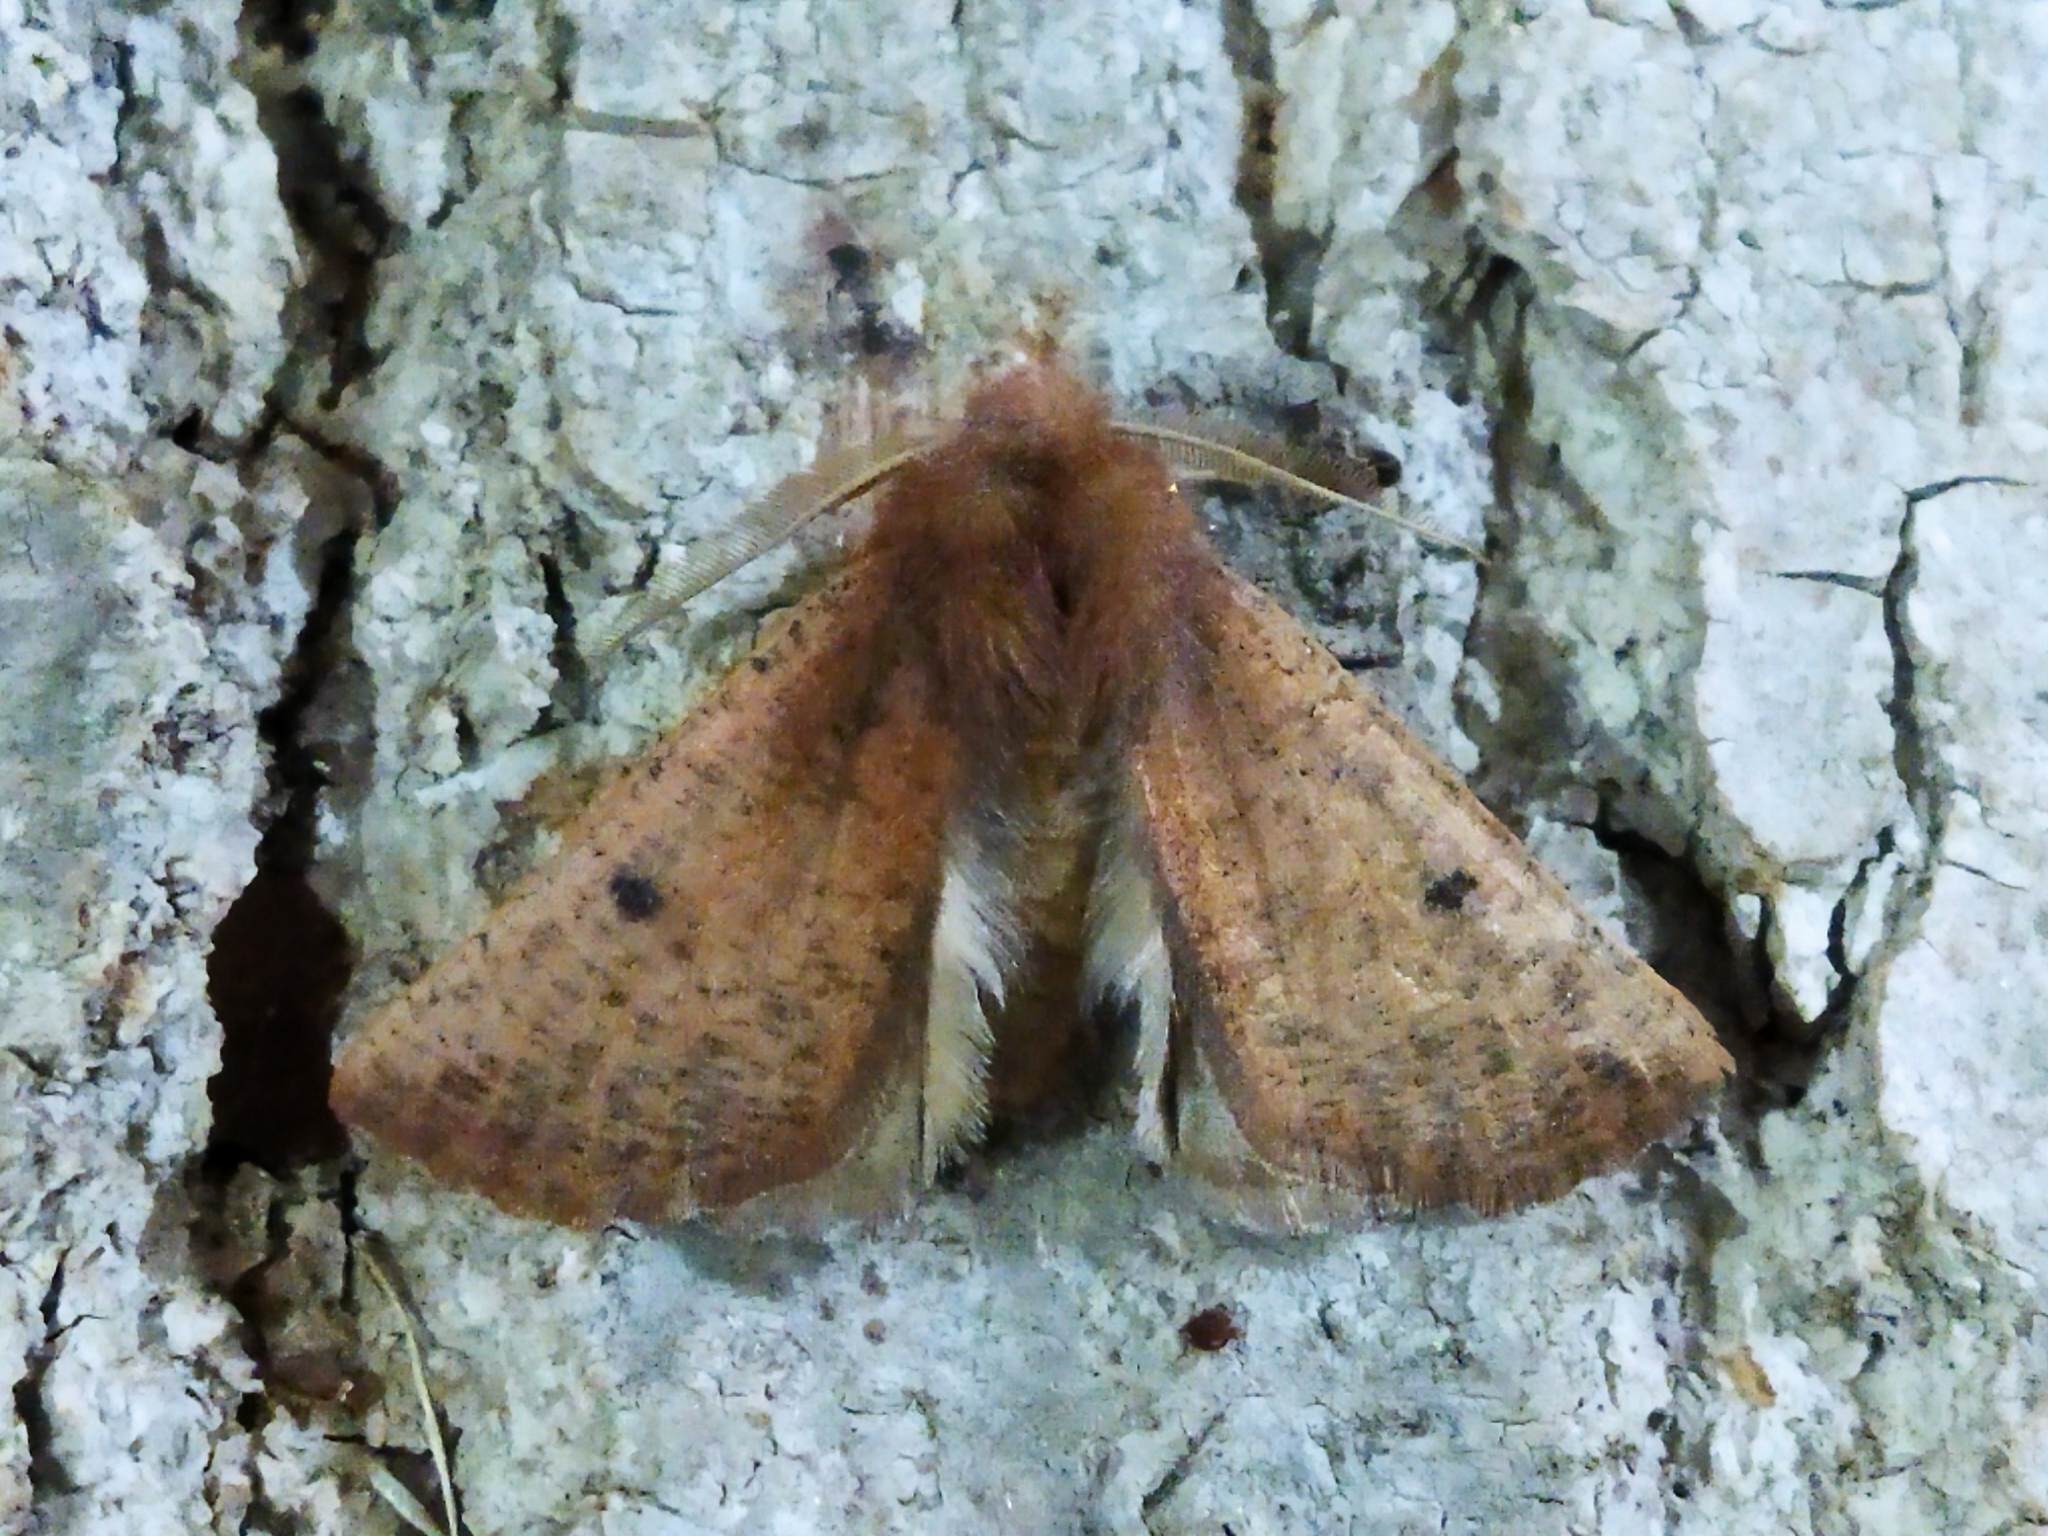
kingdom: Animalia
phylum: Arthropoda
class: Insecta
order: Lepidoptera
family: Geometridae
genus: Dasycorsa
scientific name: Dasycorsa modesta
